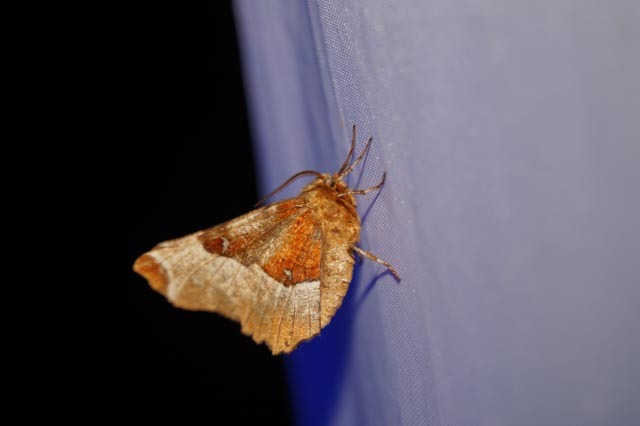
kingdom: Animalia
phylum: Arthropoda
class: Insecta
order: Lepidoptera
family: Geometridae
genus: Selenia
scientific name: Selenia tetralunaria
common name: Purple thorn
